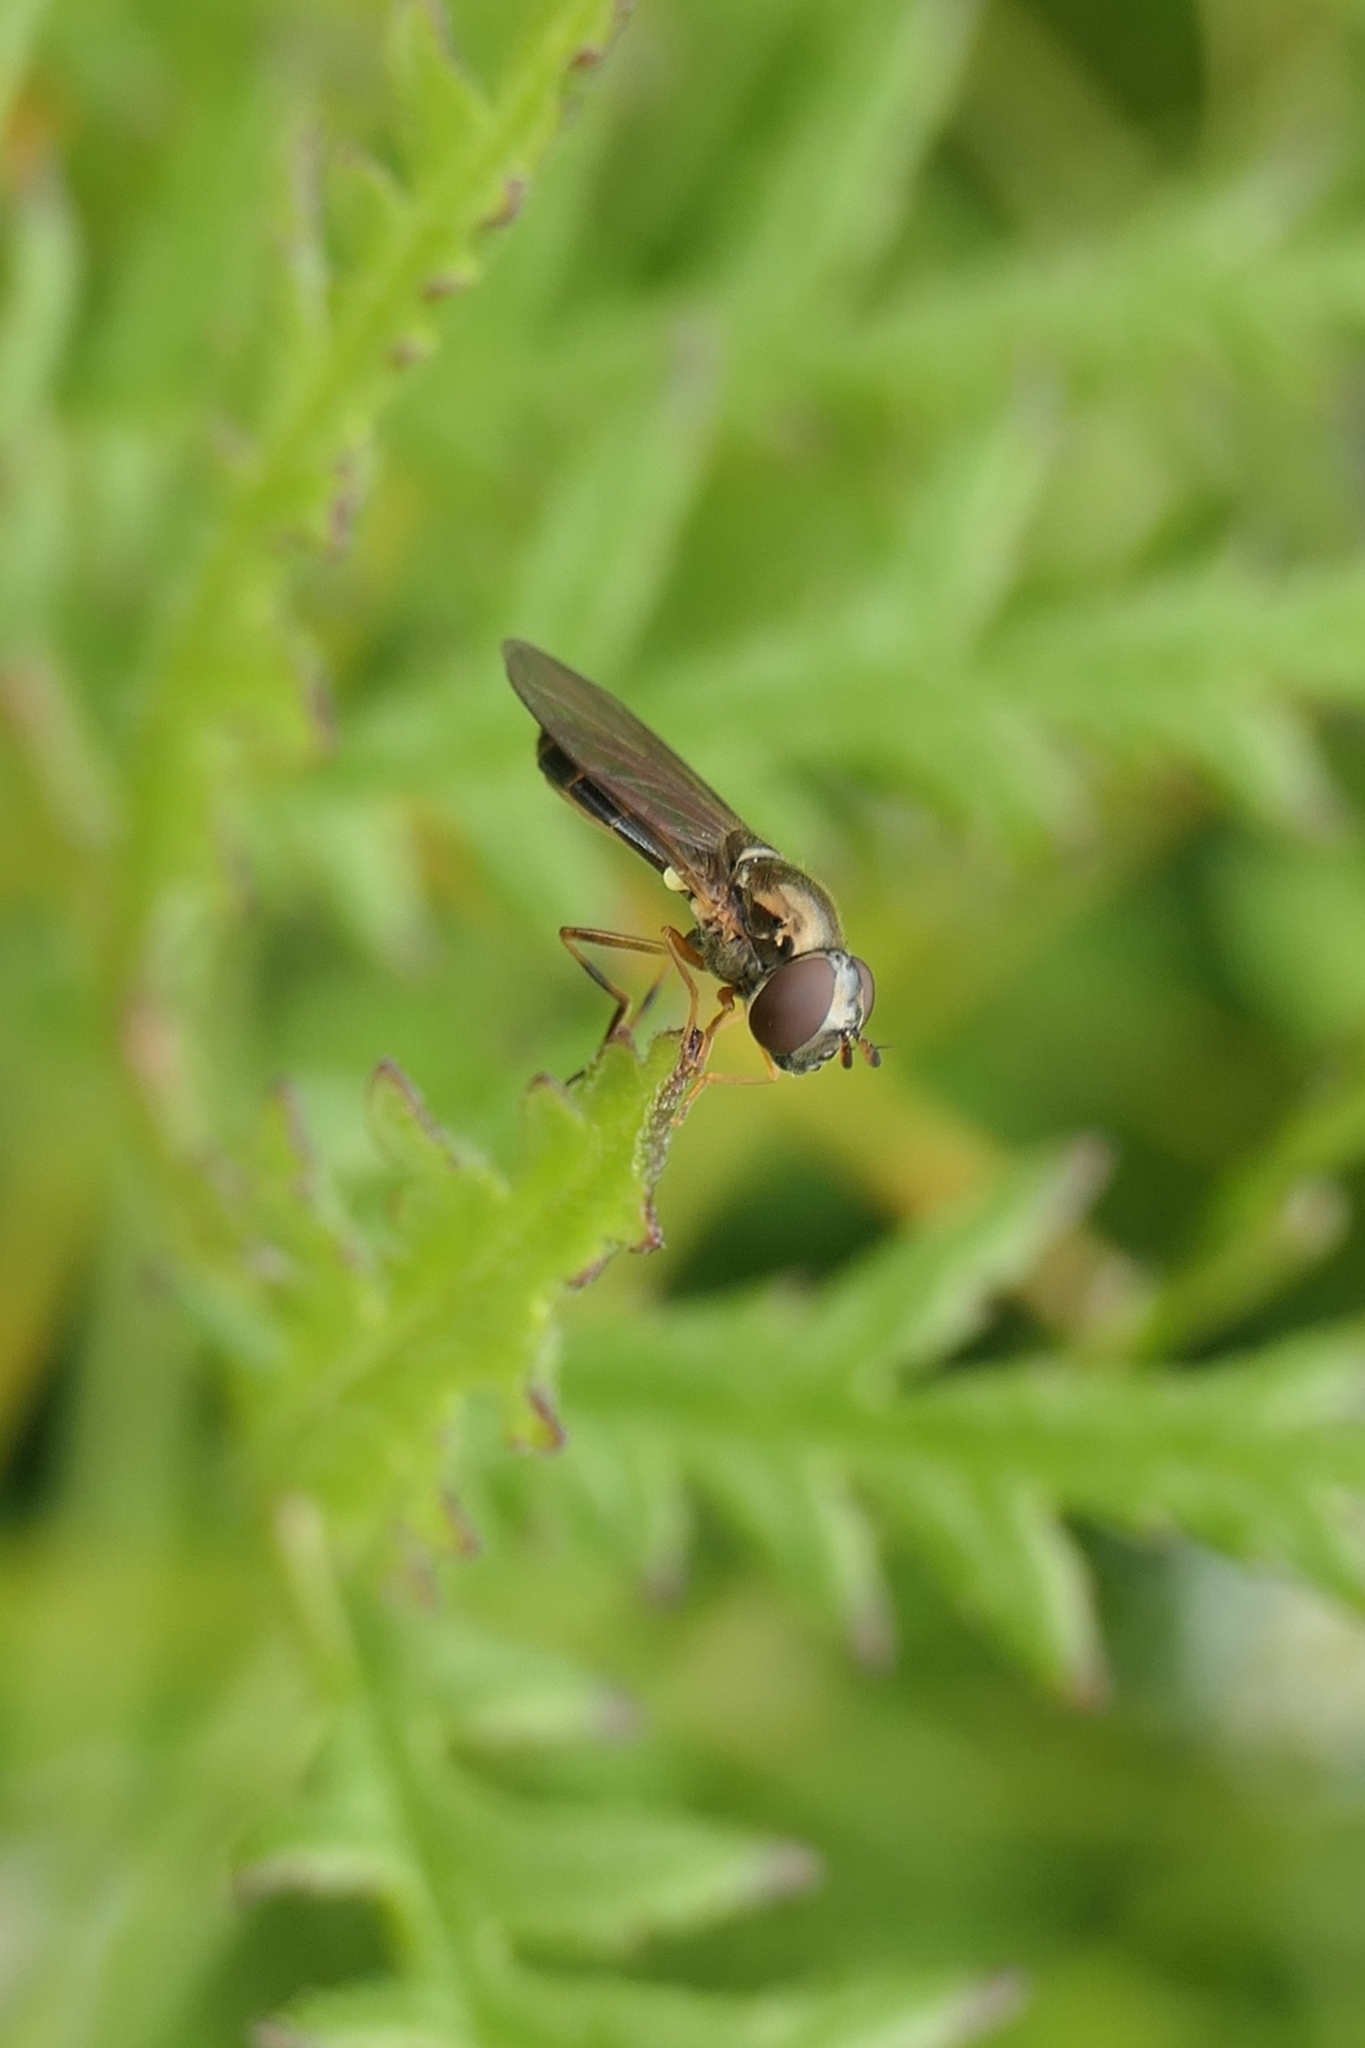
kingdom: Animalia
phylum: Arthropoda
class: Insecta
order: Diptera
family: Syrphidae
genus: Melanostoma
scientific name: Melanostoma fasciatum
